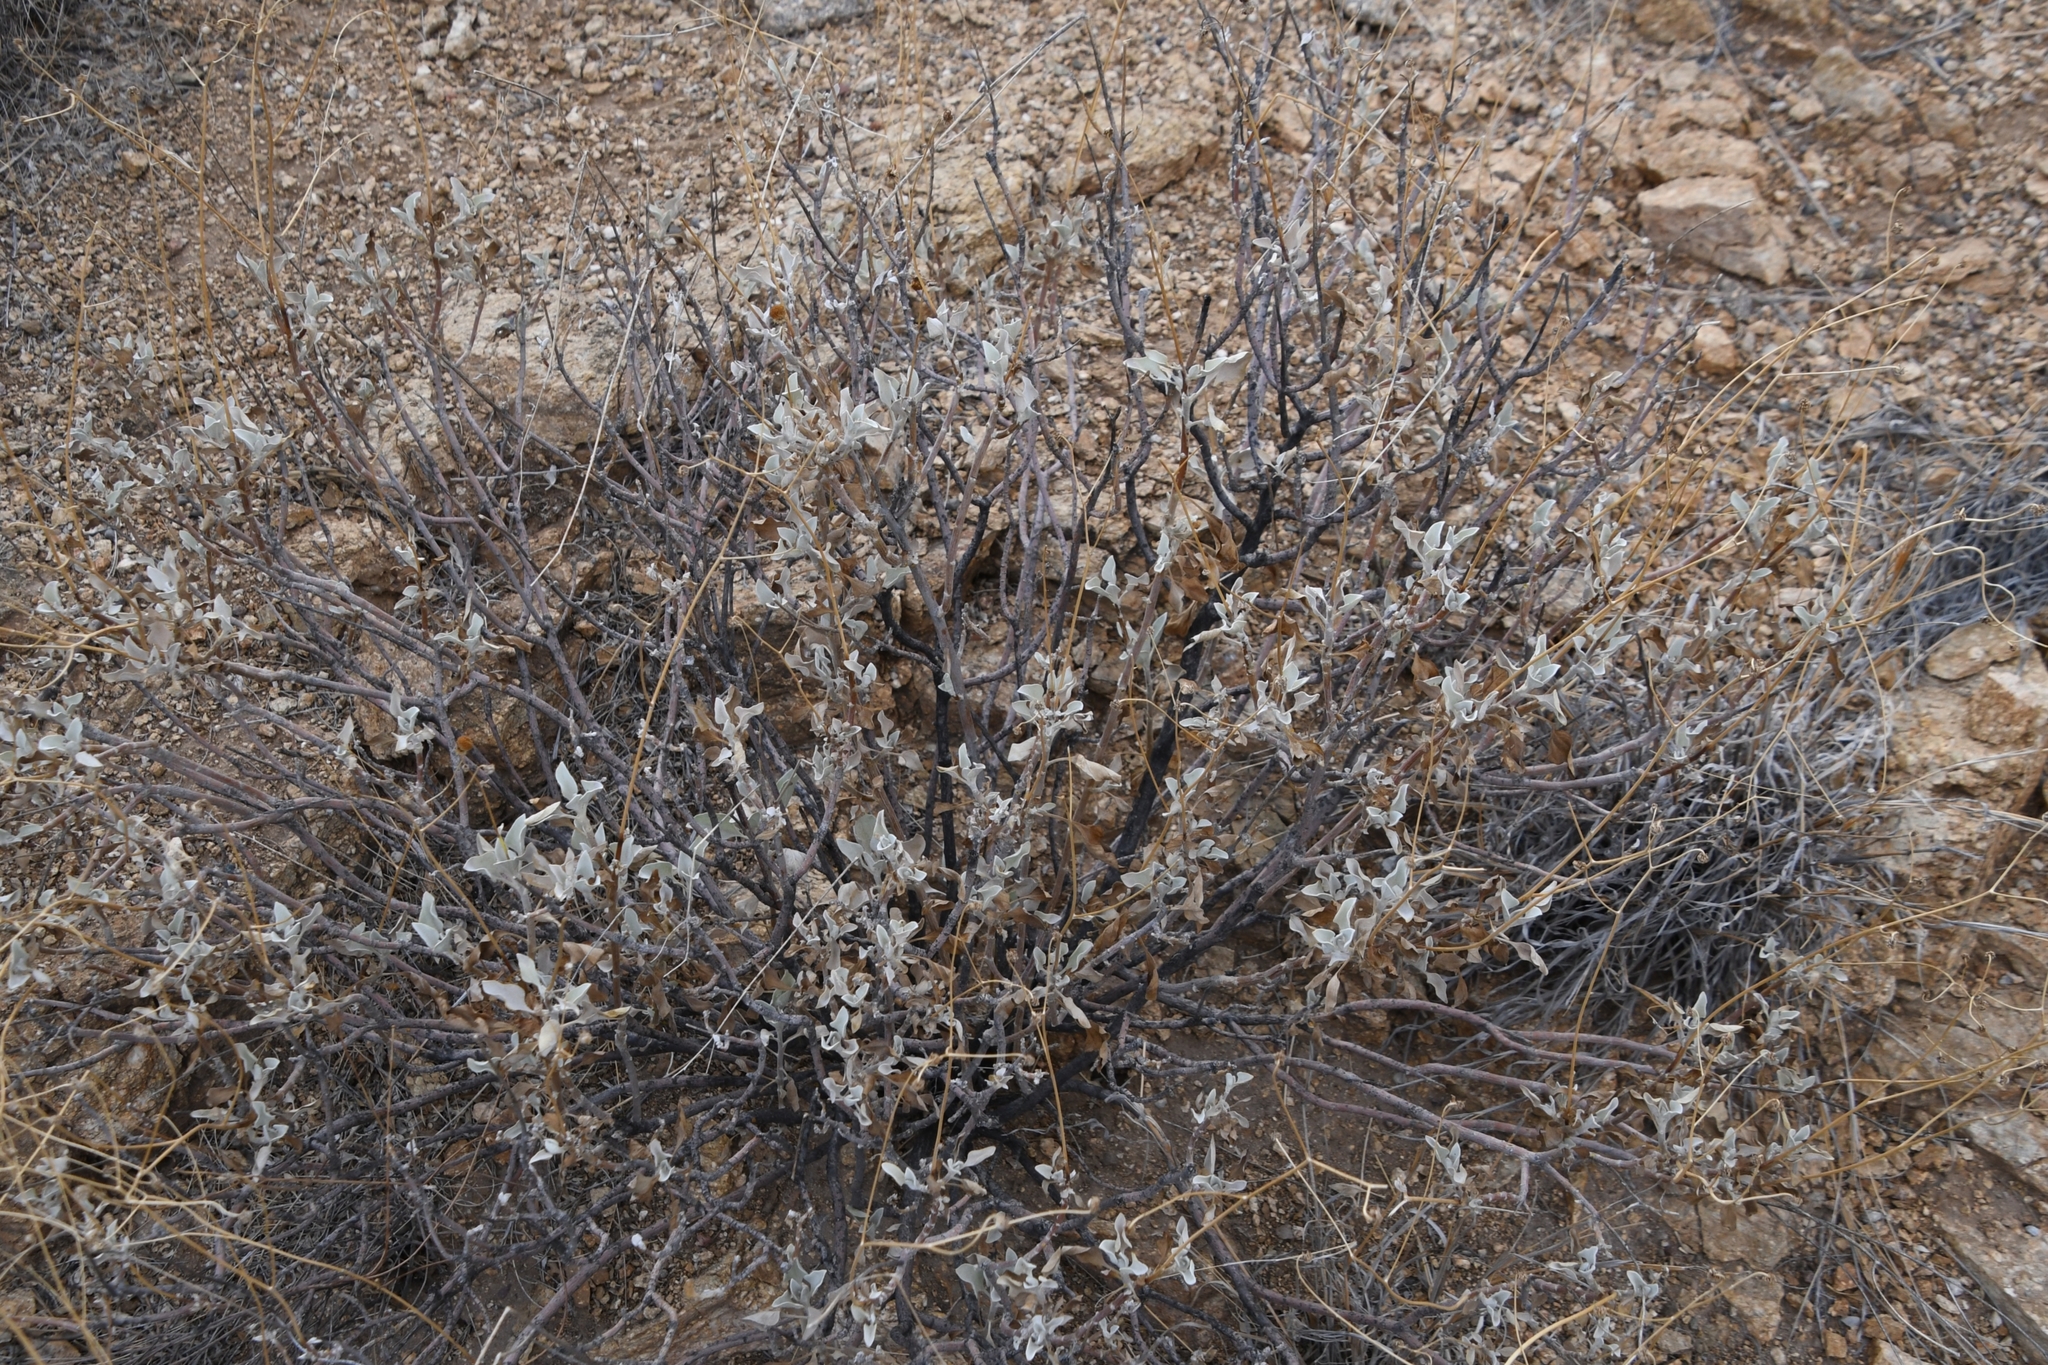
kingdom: Plantae
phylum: Tracheophyta
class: Magnoliopsida
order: Asterales
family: Asteraceae
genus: Encelia
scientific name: Encelia farinosa
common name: Brittlebush
